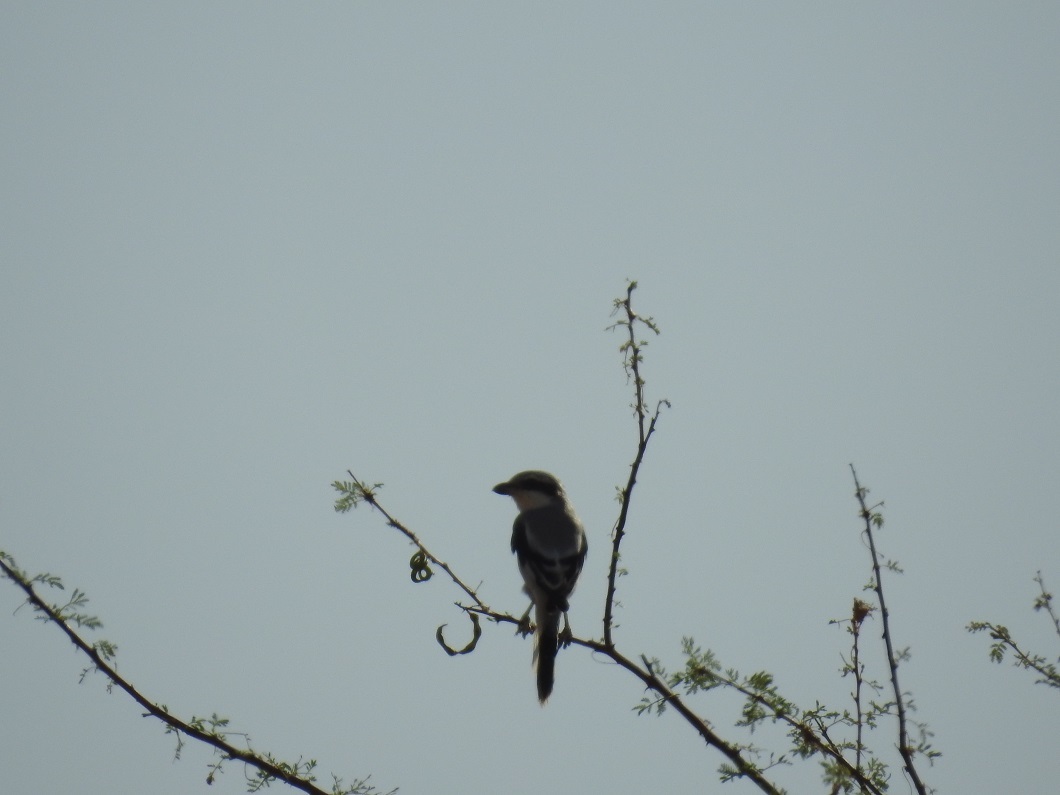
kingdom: Animalia
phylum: Chordata
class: Aves
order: Passeriformes
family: Laniidae
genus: Lanius
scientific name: Lanius excubitor
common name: Great grey shrike
